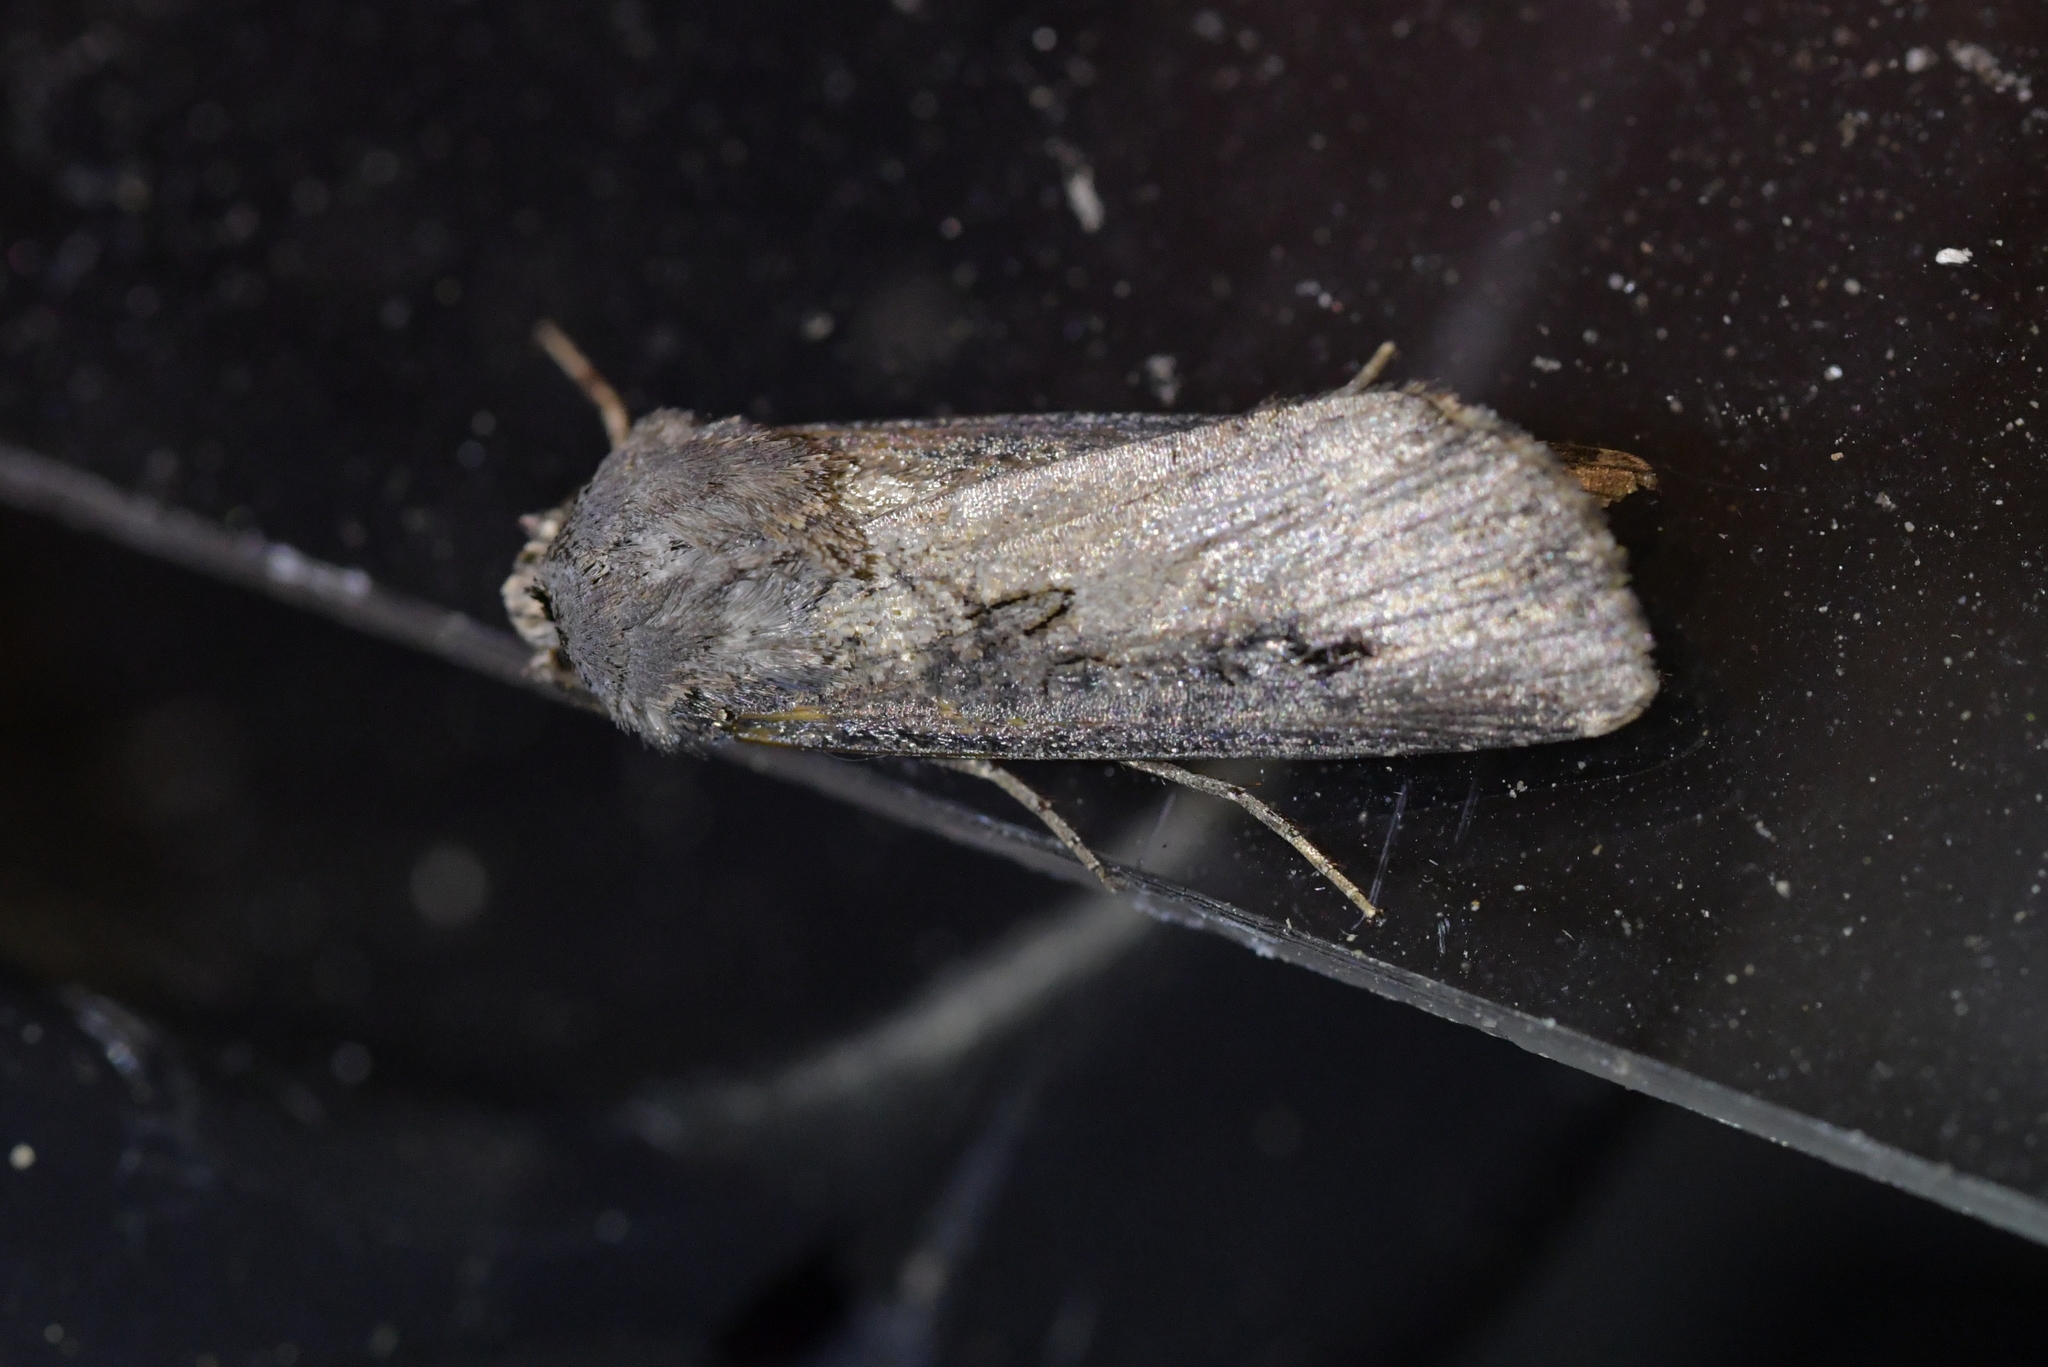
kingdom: Animalia
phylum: Arthropoda
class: Insecta
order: Lepidoptera
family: Noctuidae
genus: Agrotis
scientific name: Agrotis ipsilon
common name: Dark sword-grass
